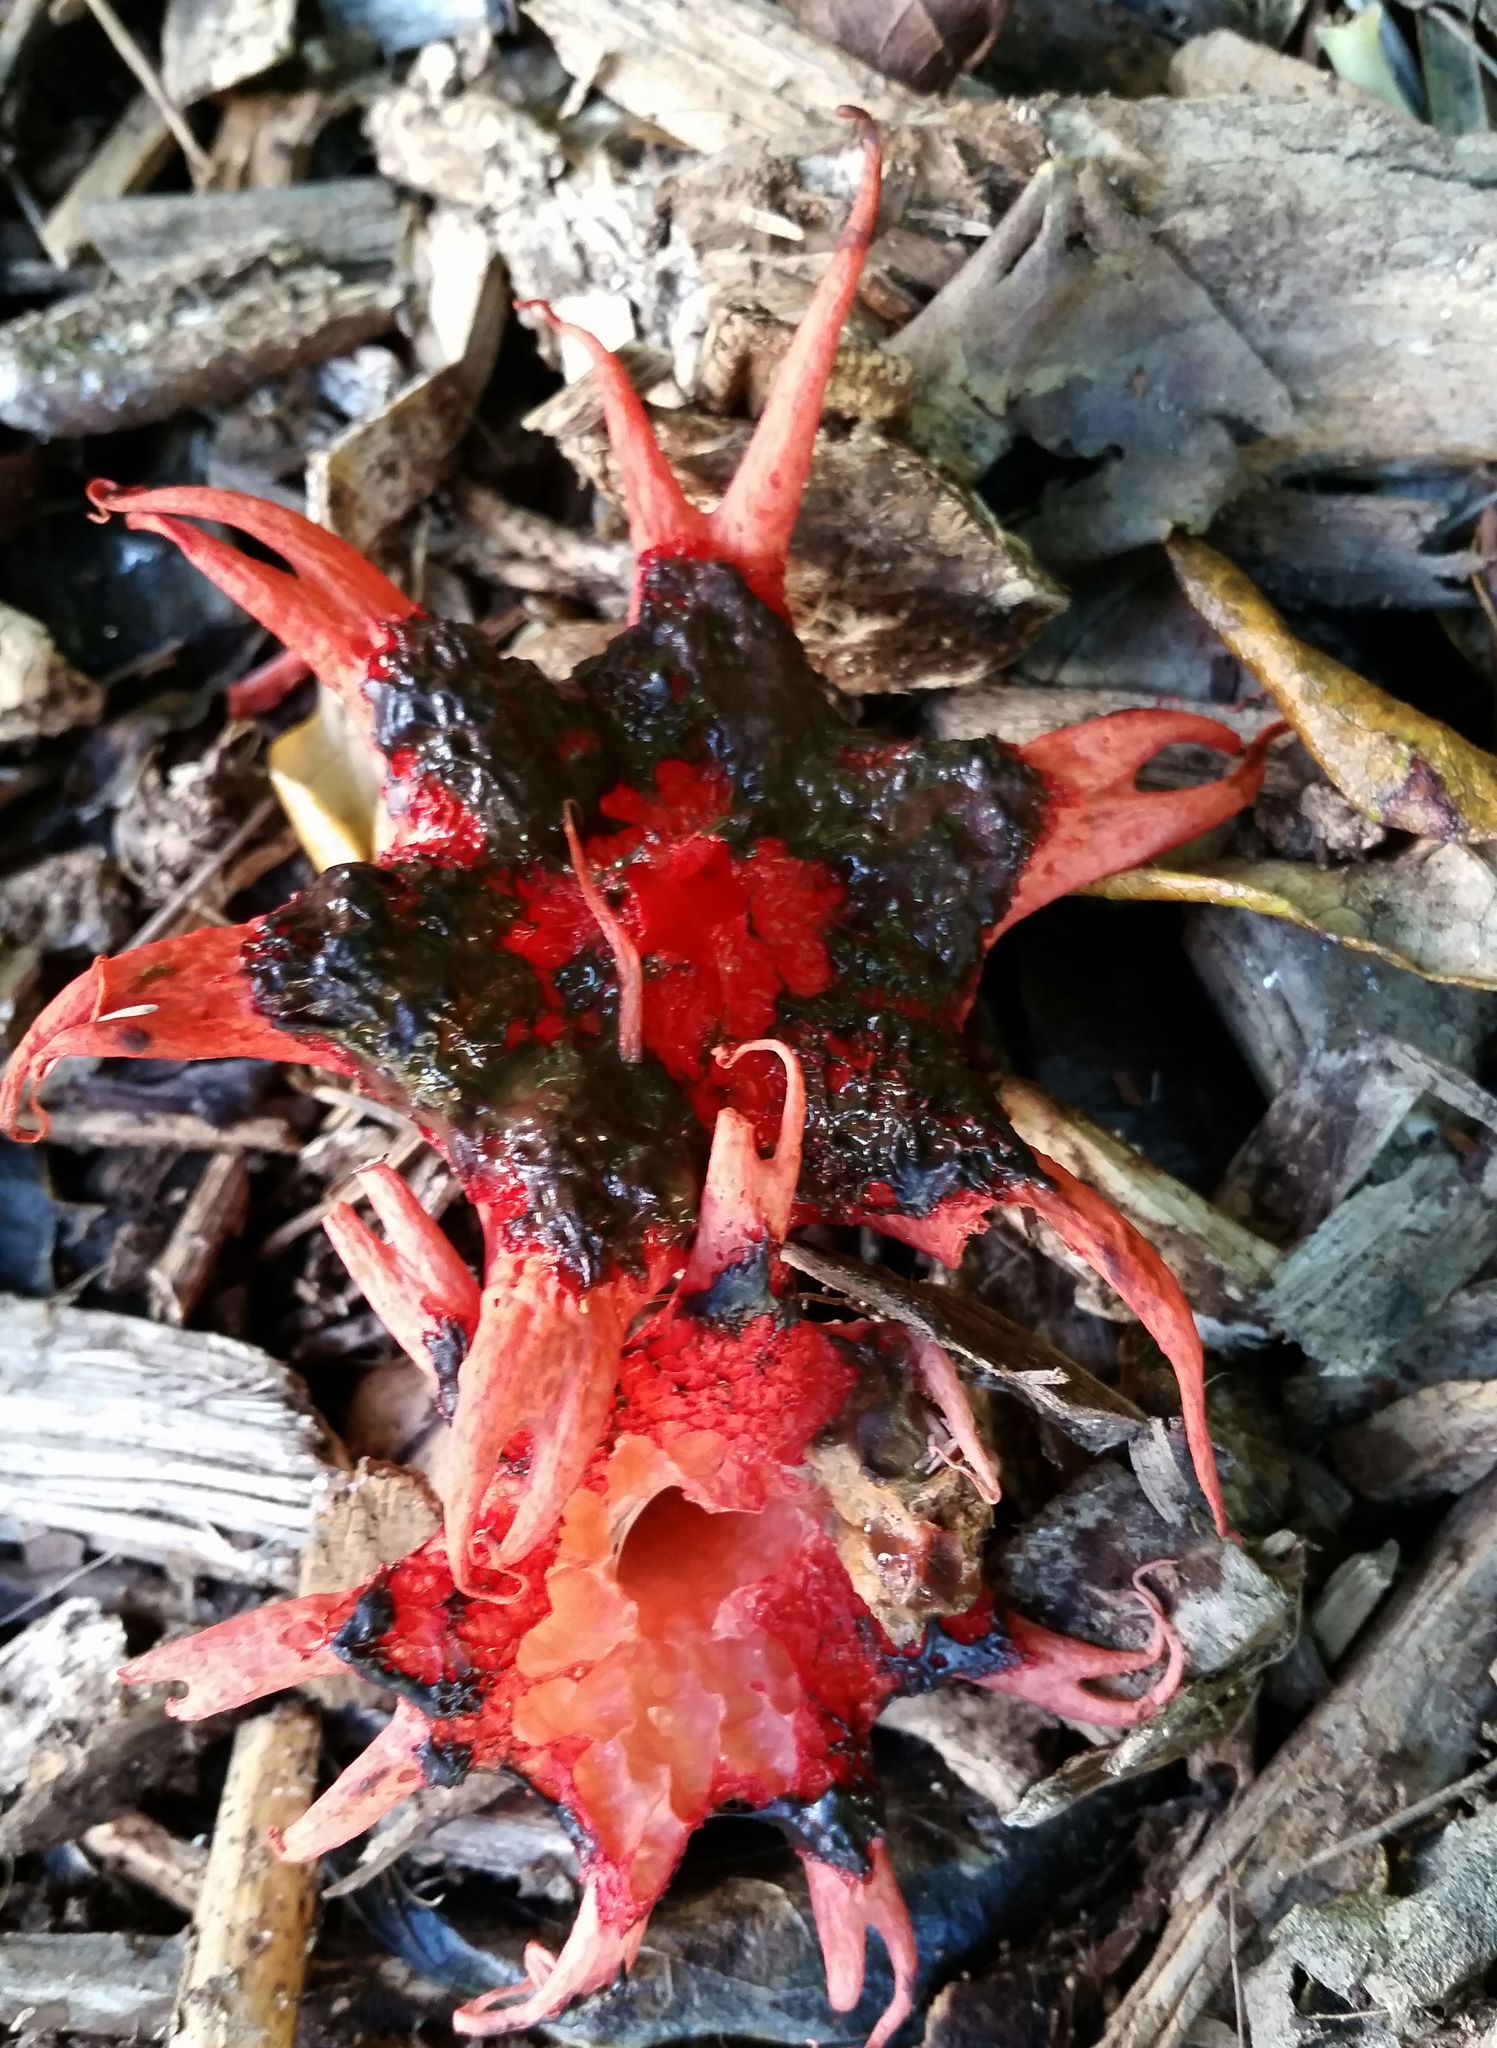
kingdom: Fungi
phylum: Basidiomycota
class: Agaricomycetes
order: Phallales
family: Phallaceae
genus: Aseroe
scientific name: Aseroe rubra
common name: Starfish fungus
